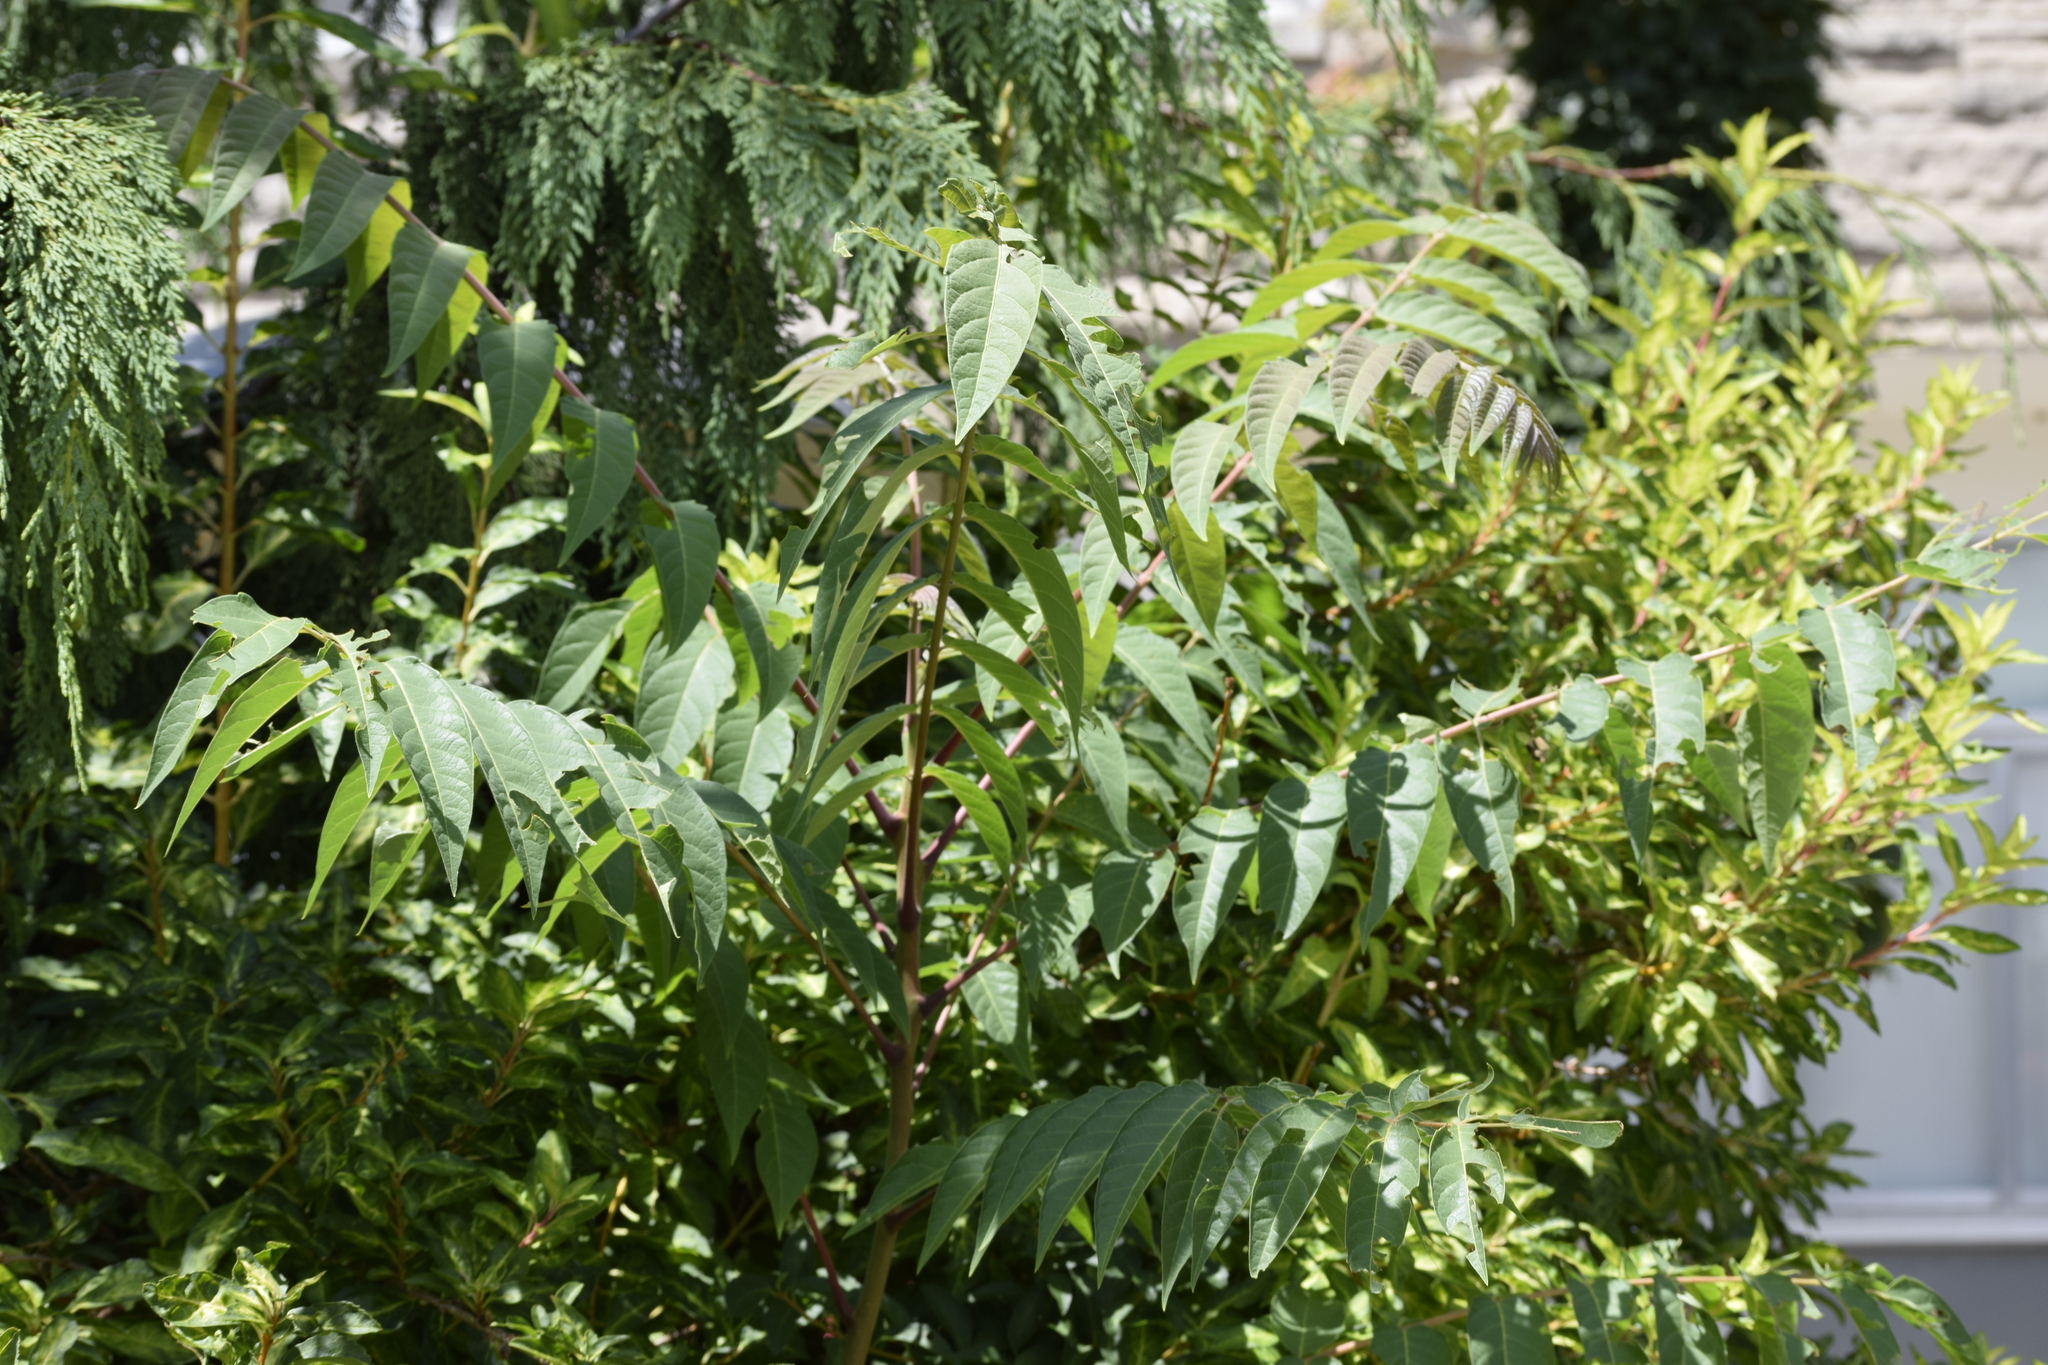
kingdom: Plantae
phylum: Tracheophyta
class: Magnoliopsida
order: Sapindales
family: Simaroubaceae
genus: Ailanthus
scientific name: Ailanthus altissima
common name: Tree-of-heaven
